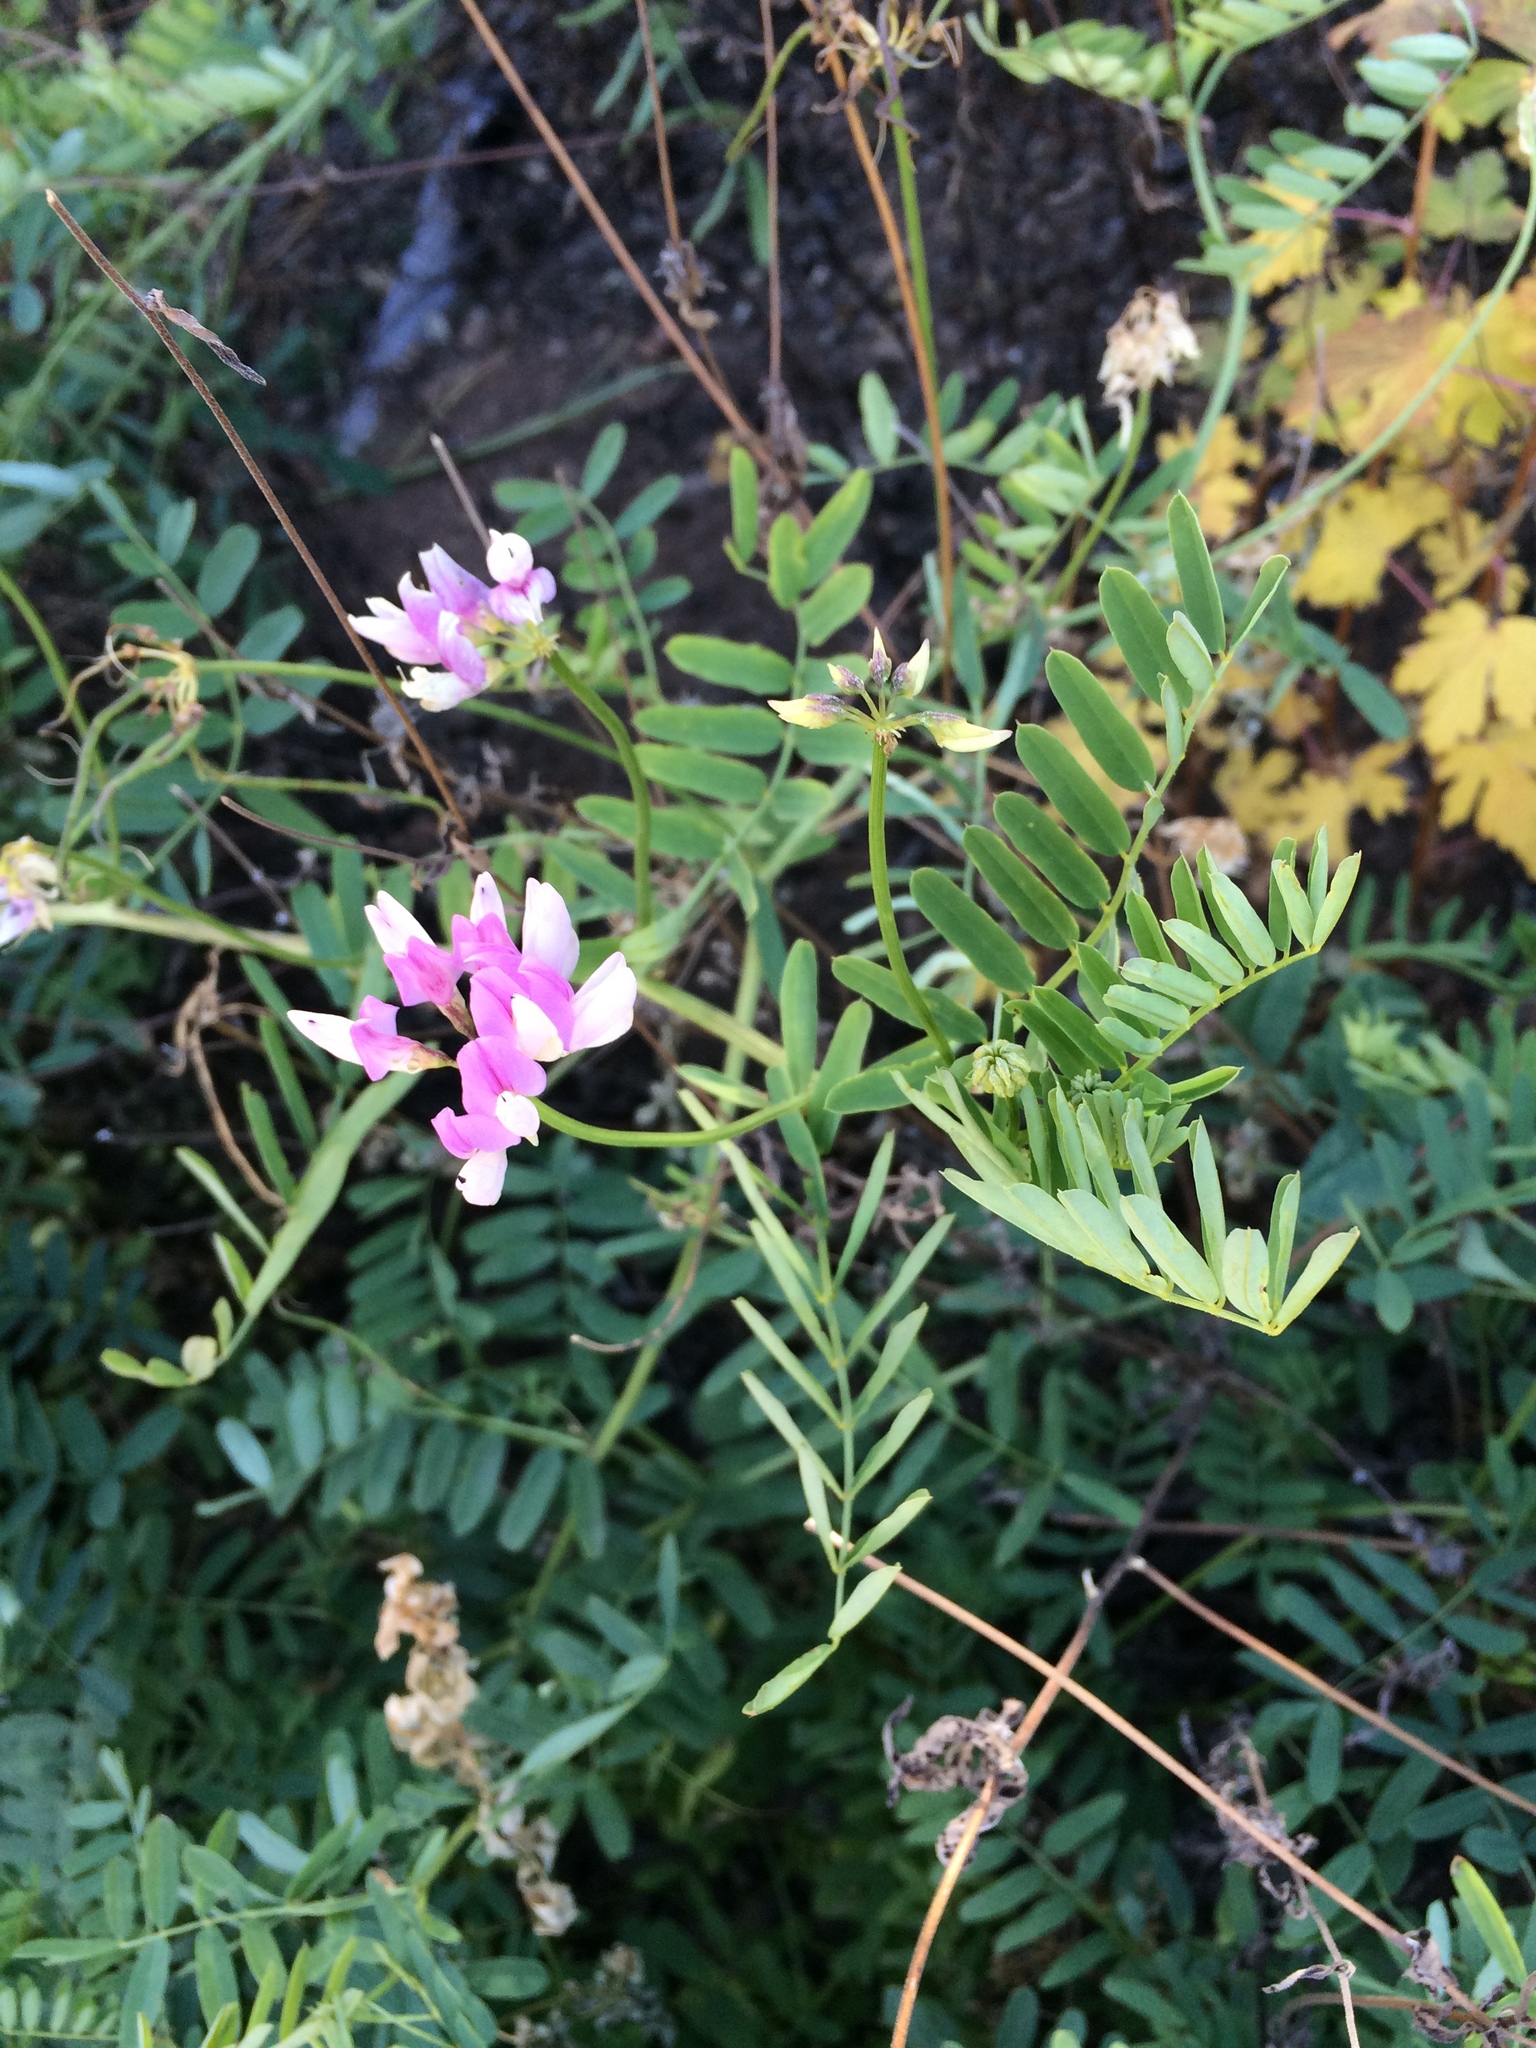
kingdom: Plantae
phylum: Tracheophyta
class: Magnoliopsida
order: Fabales
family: Fabaceae
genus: Coronilla
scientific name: Coronilla varia
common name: Crownvetch
